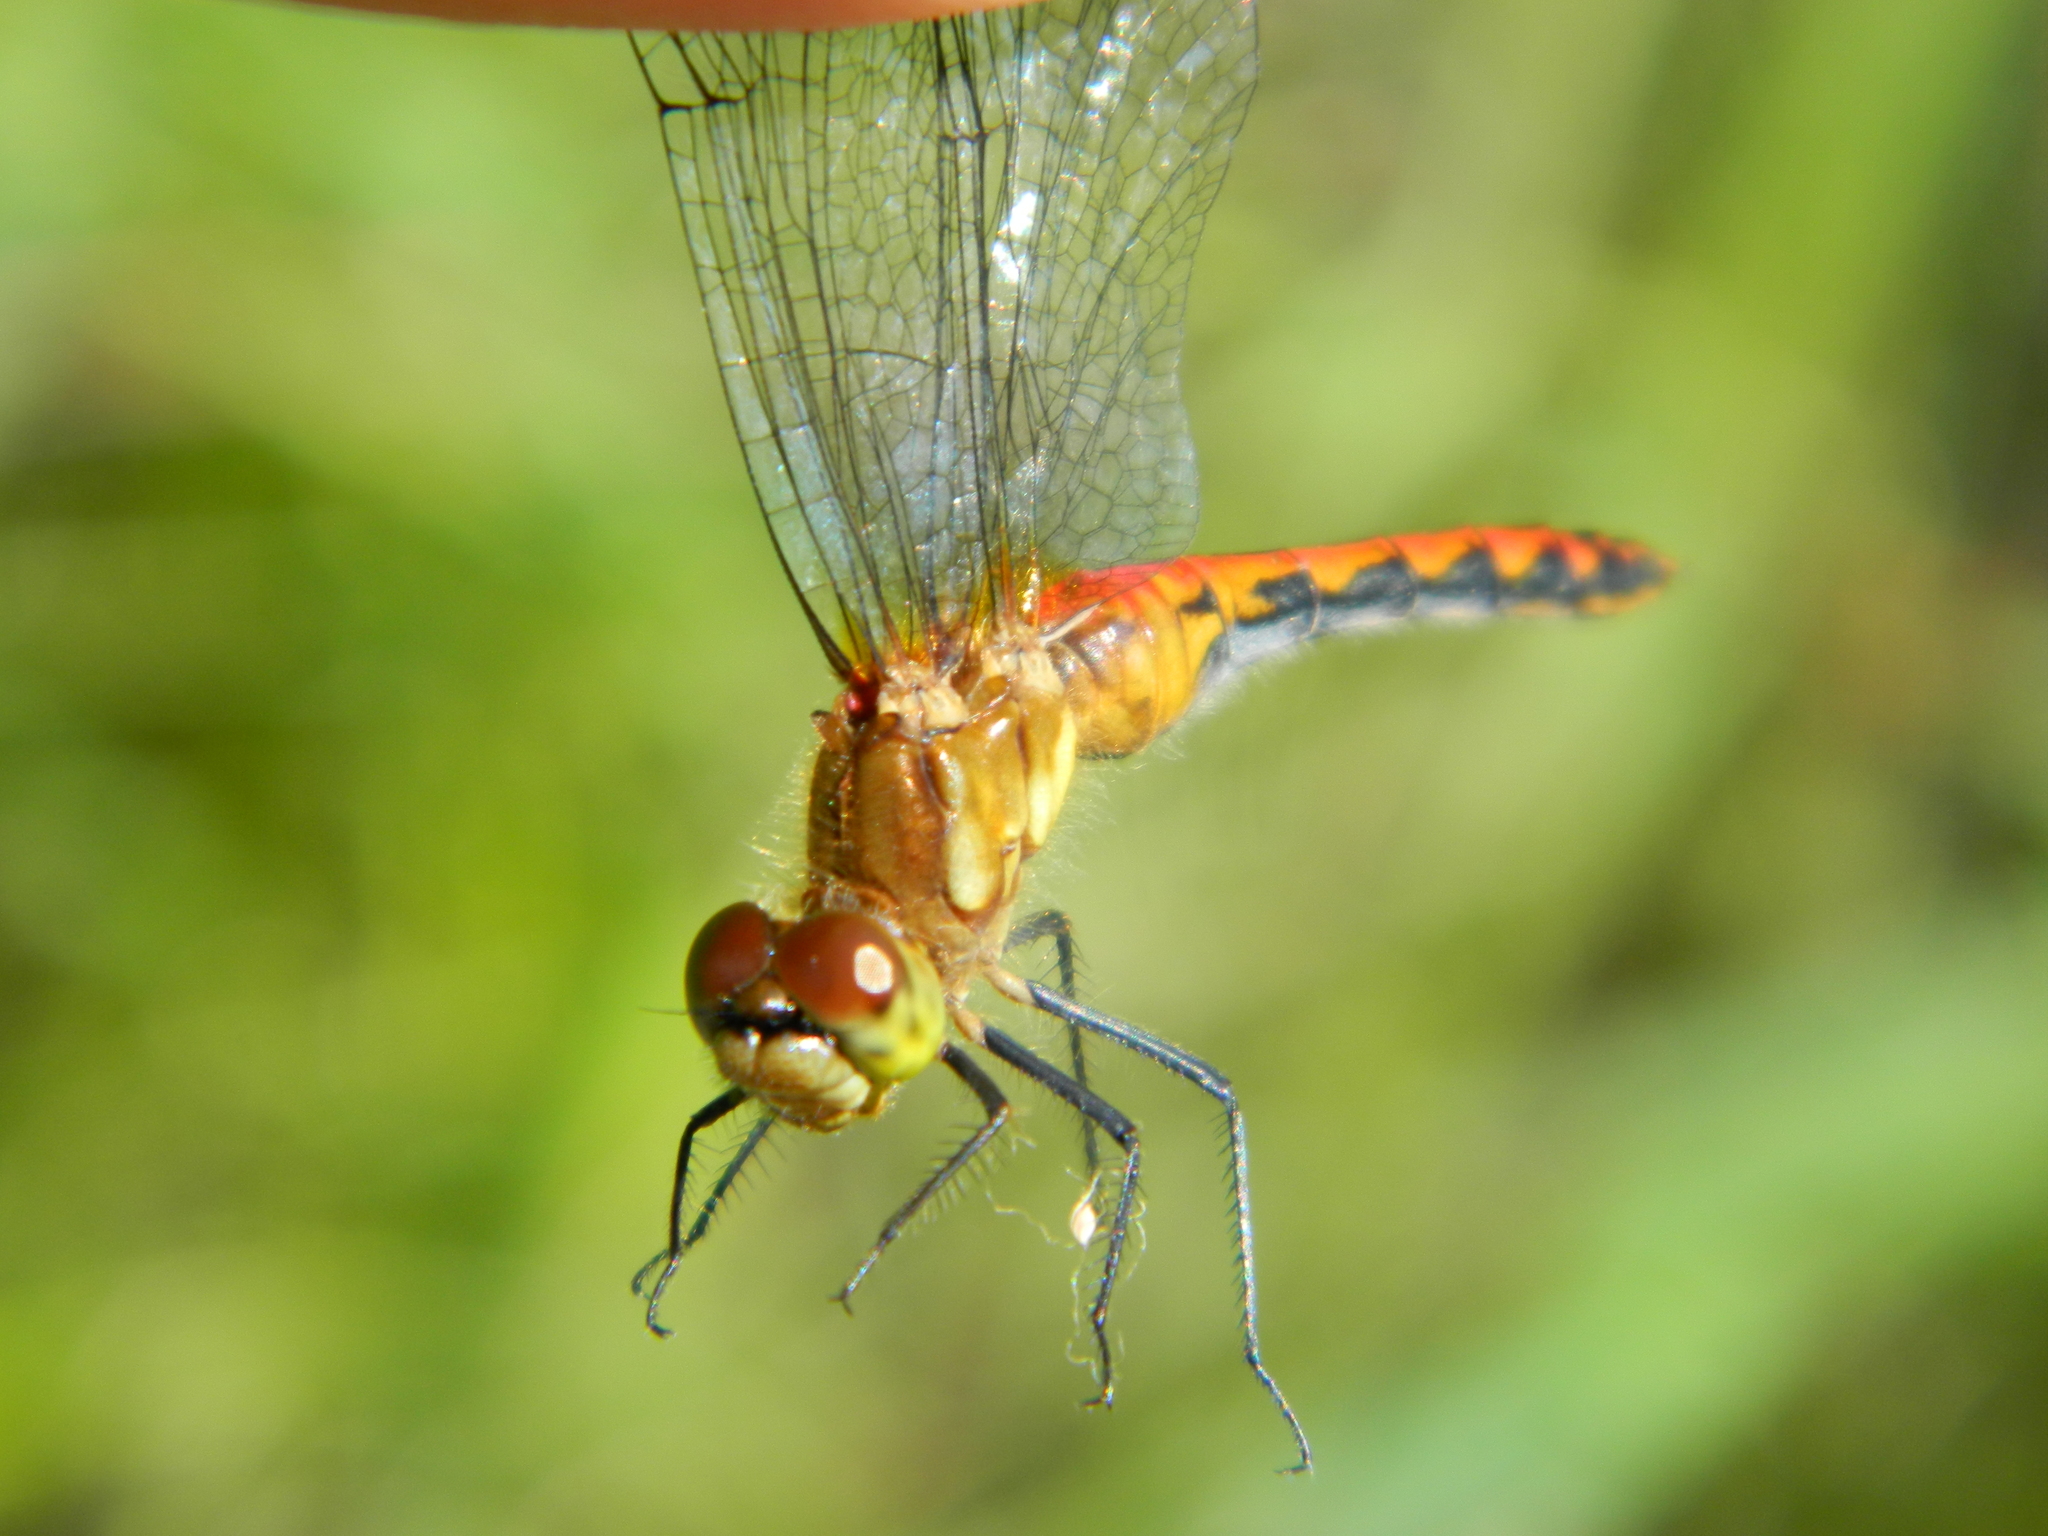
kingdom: Animalia
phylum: Arthropoda
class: Insecta
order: Odonata
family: Libellulidae
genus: Sympetrum
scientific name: Sympetrum obtrusum
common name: White-faced meadowhawk
